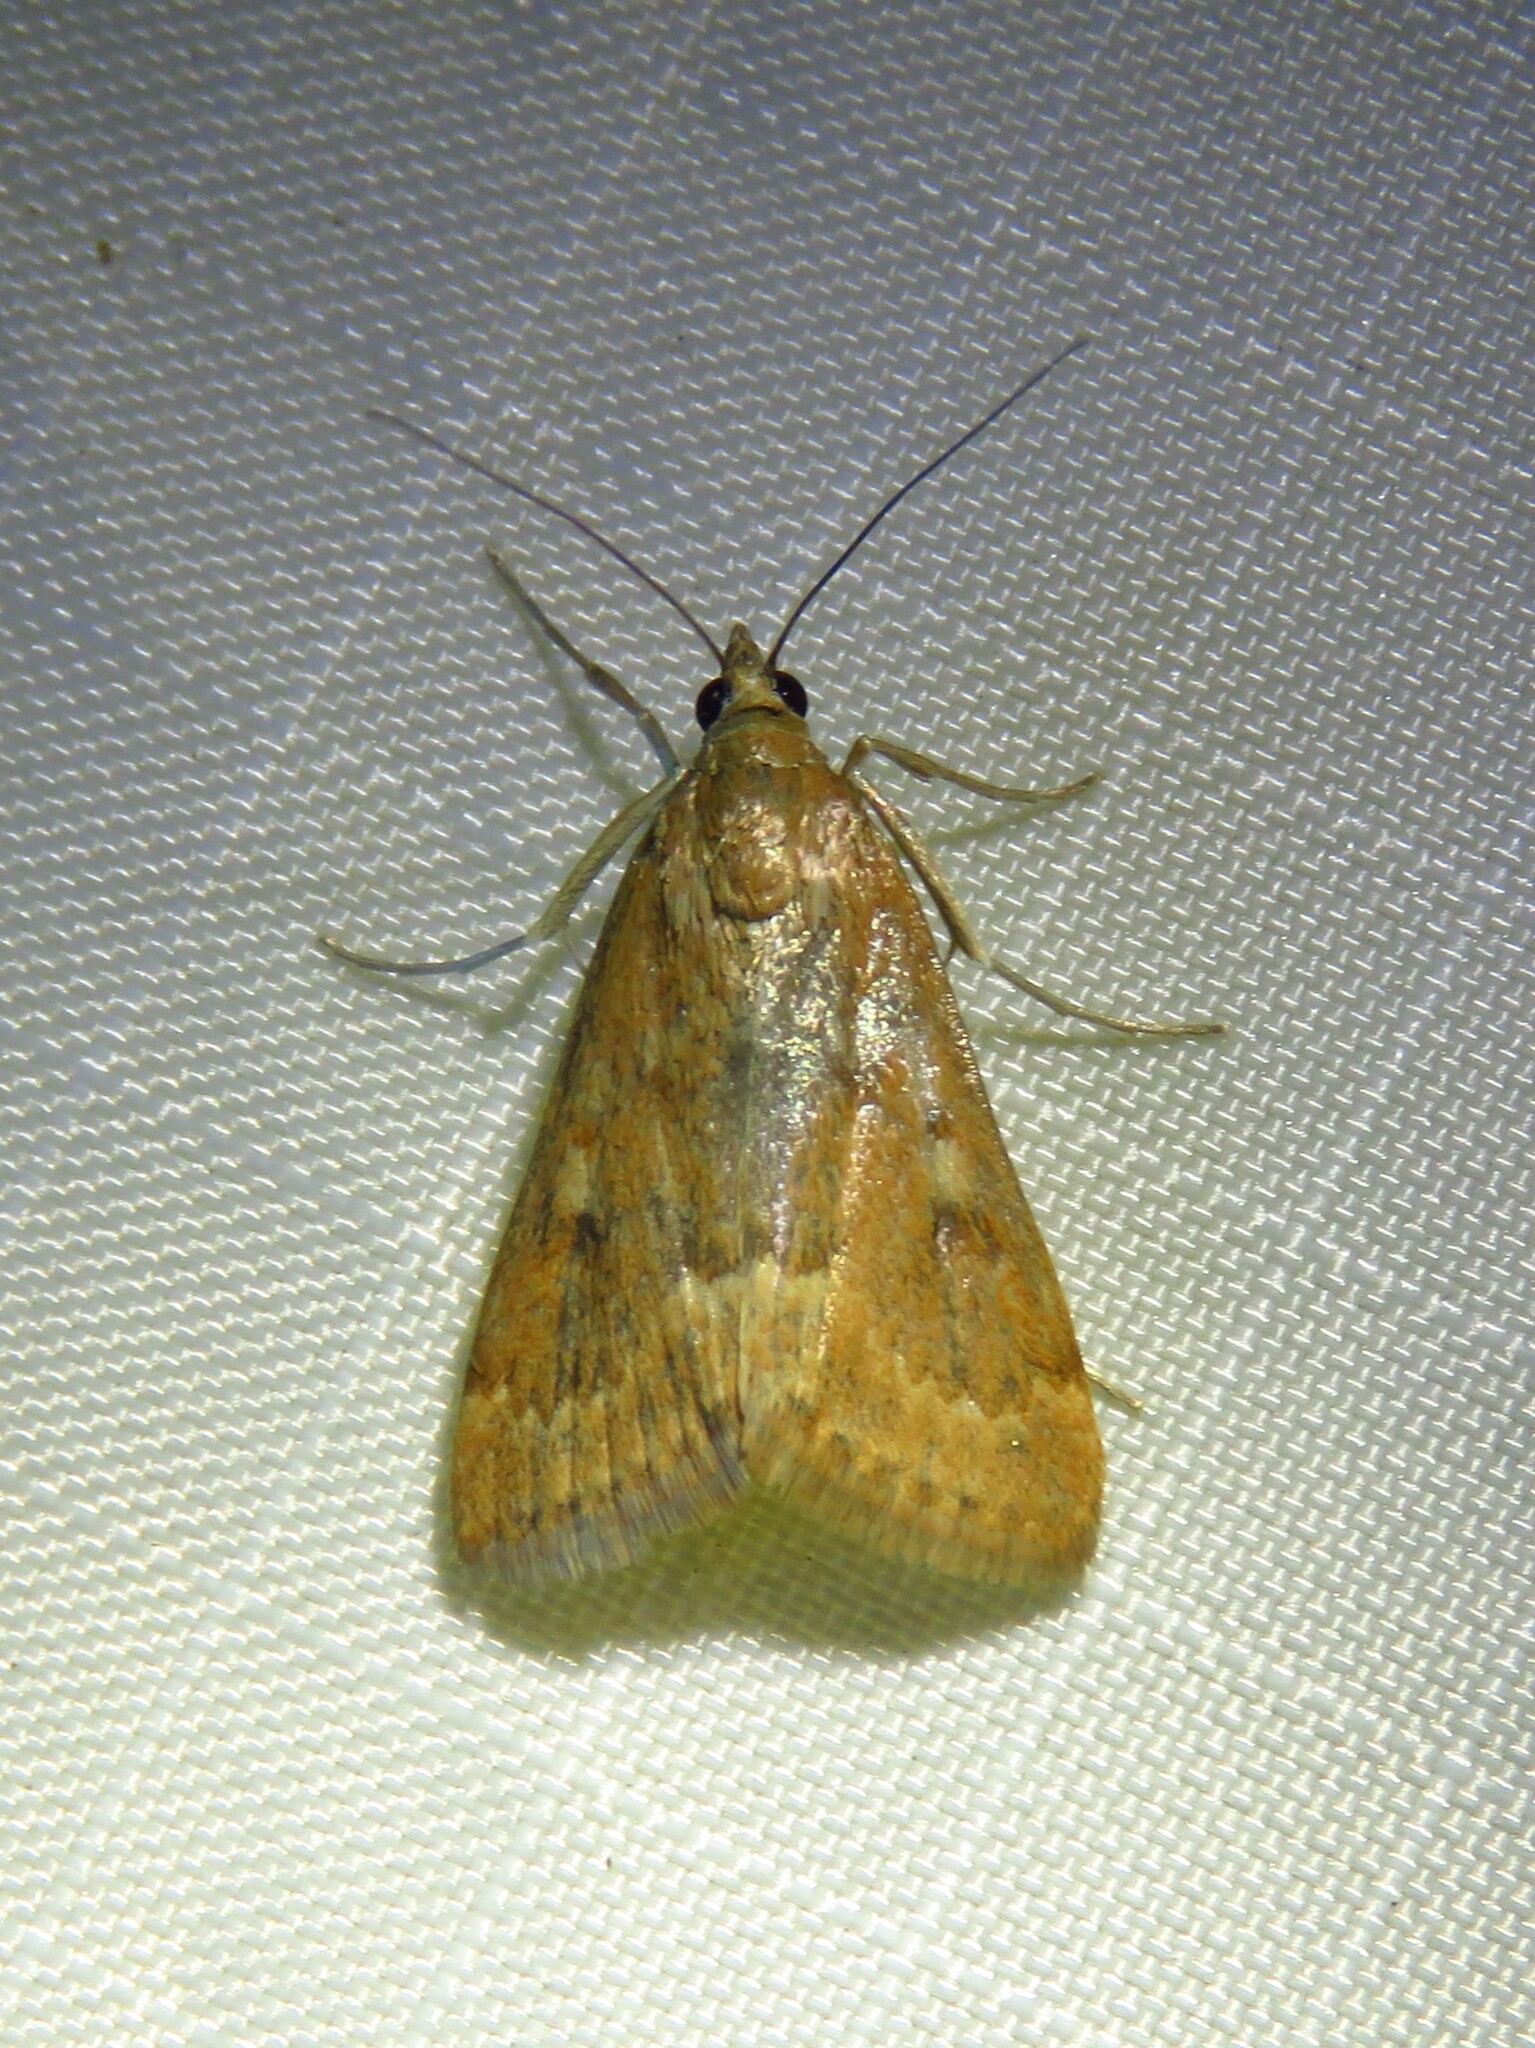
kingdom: Animalia
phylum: Arthropoda
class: Insecta
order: Lepidoptera
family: Crambidae
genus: Achyra
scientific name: Achyra rantalis
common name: Garden webworm
